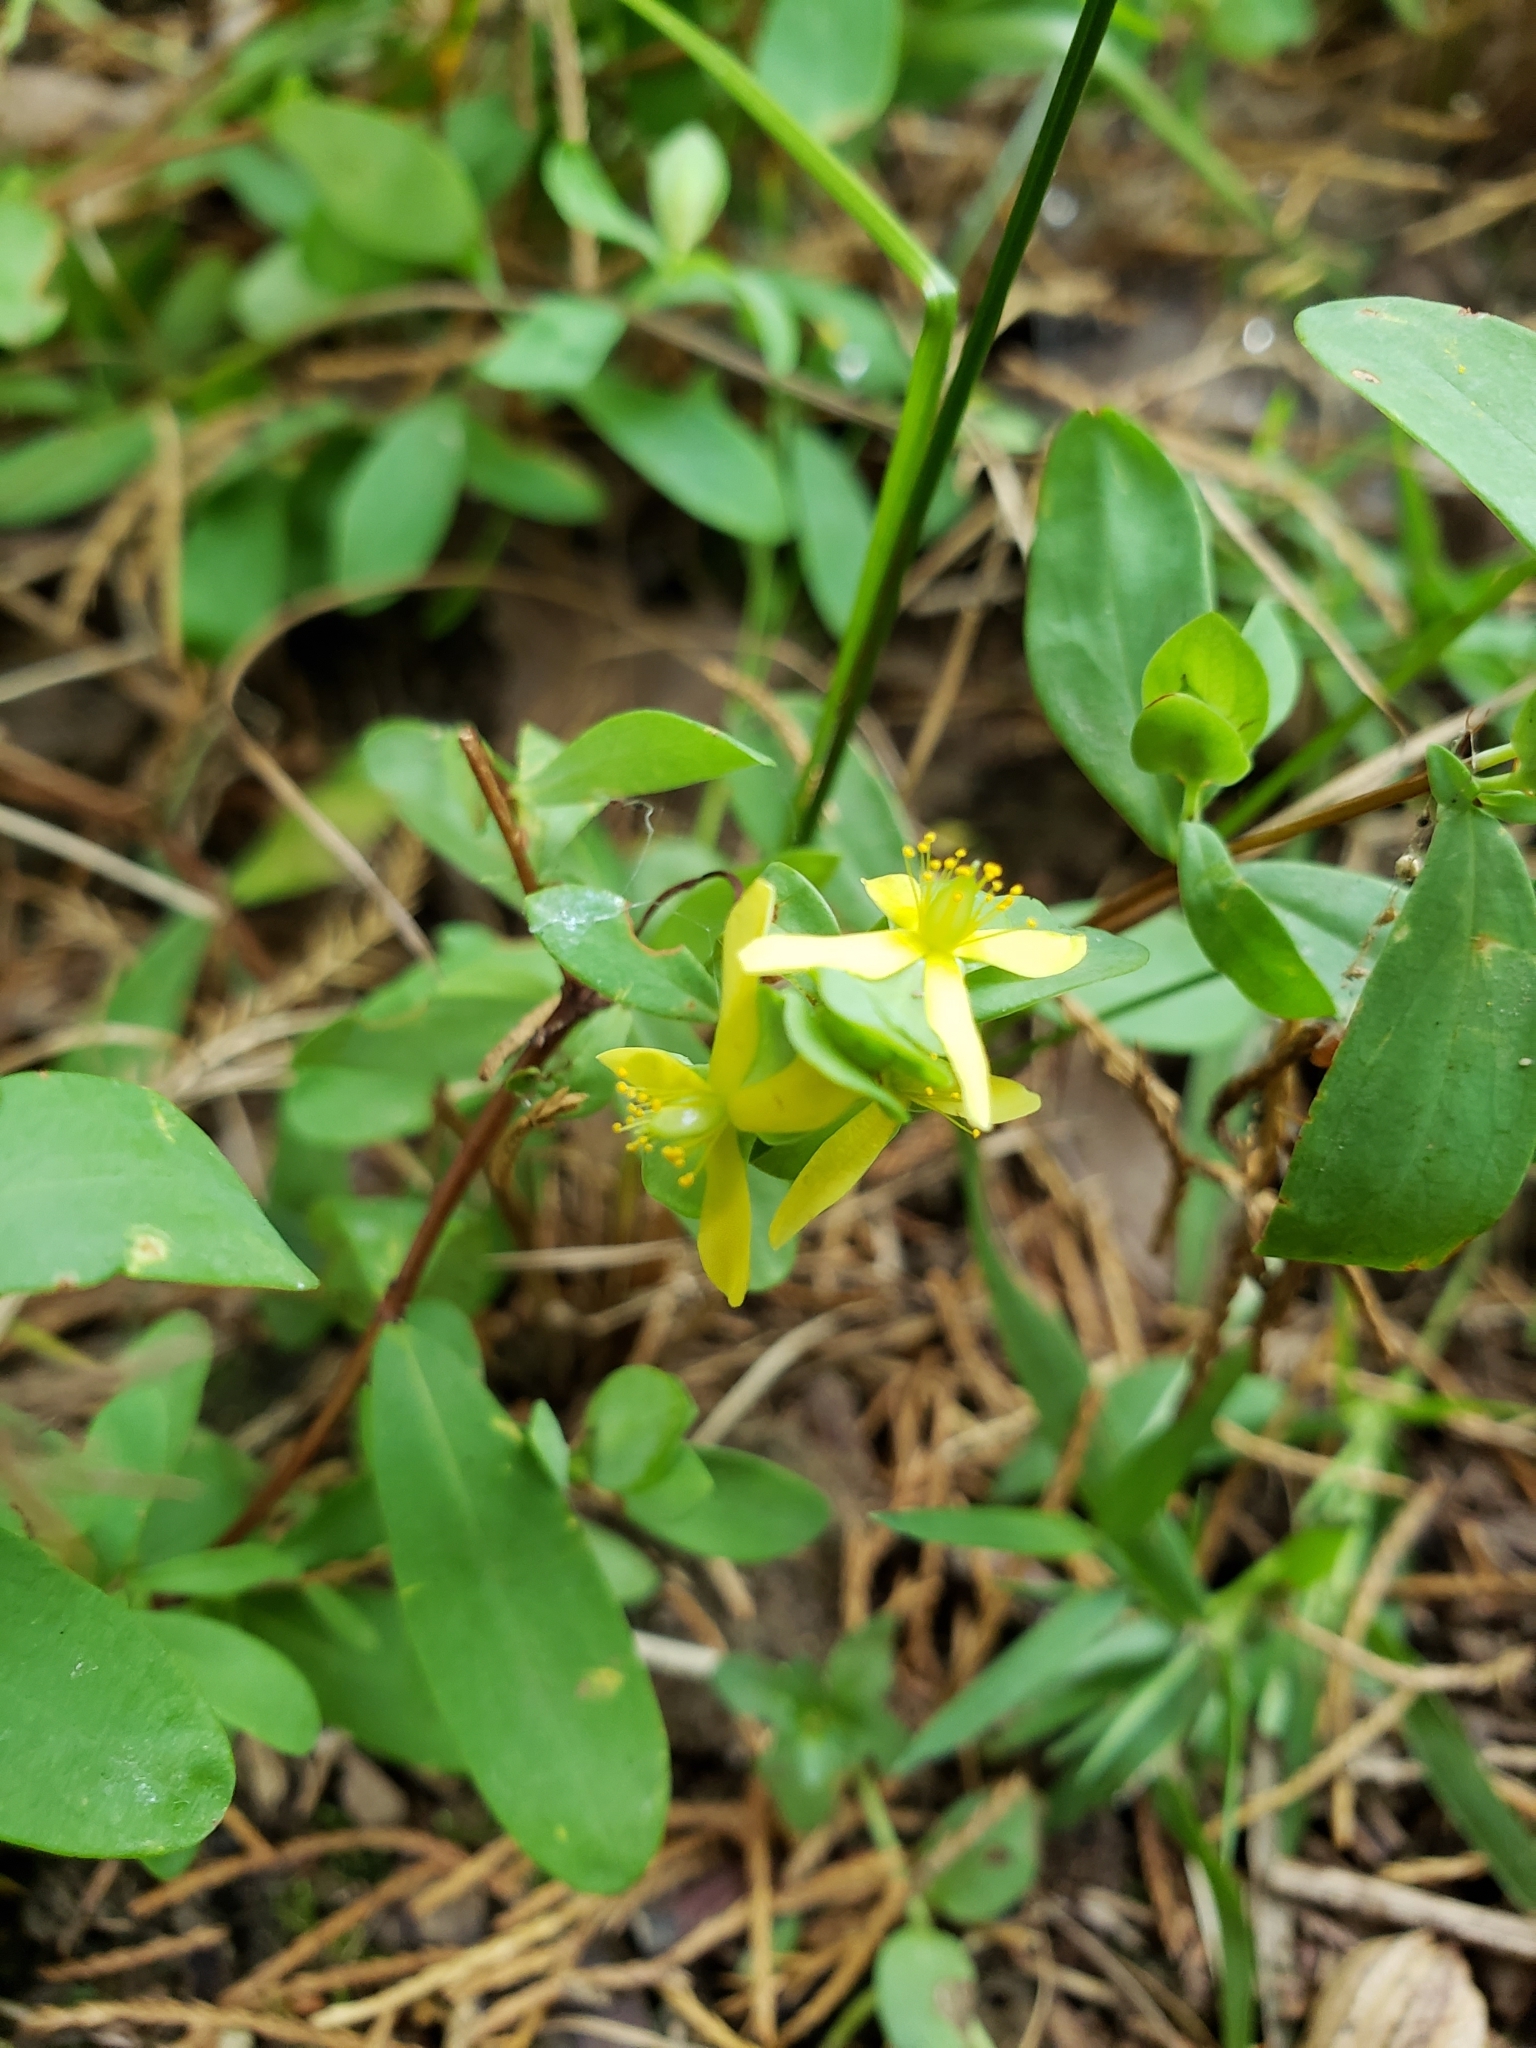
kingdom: Plantae
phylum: Tracheophyta
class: Magnoliopsida
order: Malpighiales
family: Hypericaceae
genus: Hypericum
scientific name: Hypericum hypericoides
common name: St. andrew's cross
